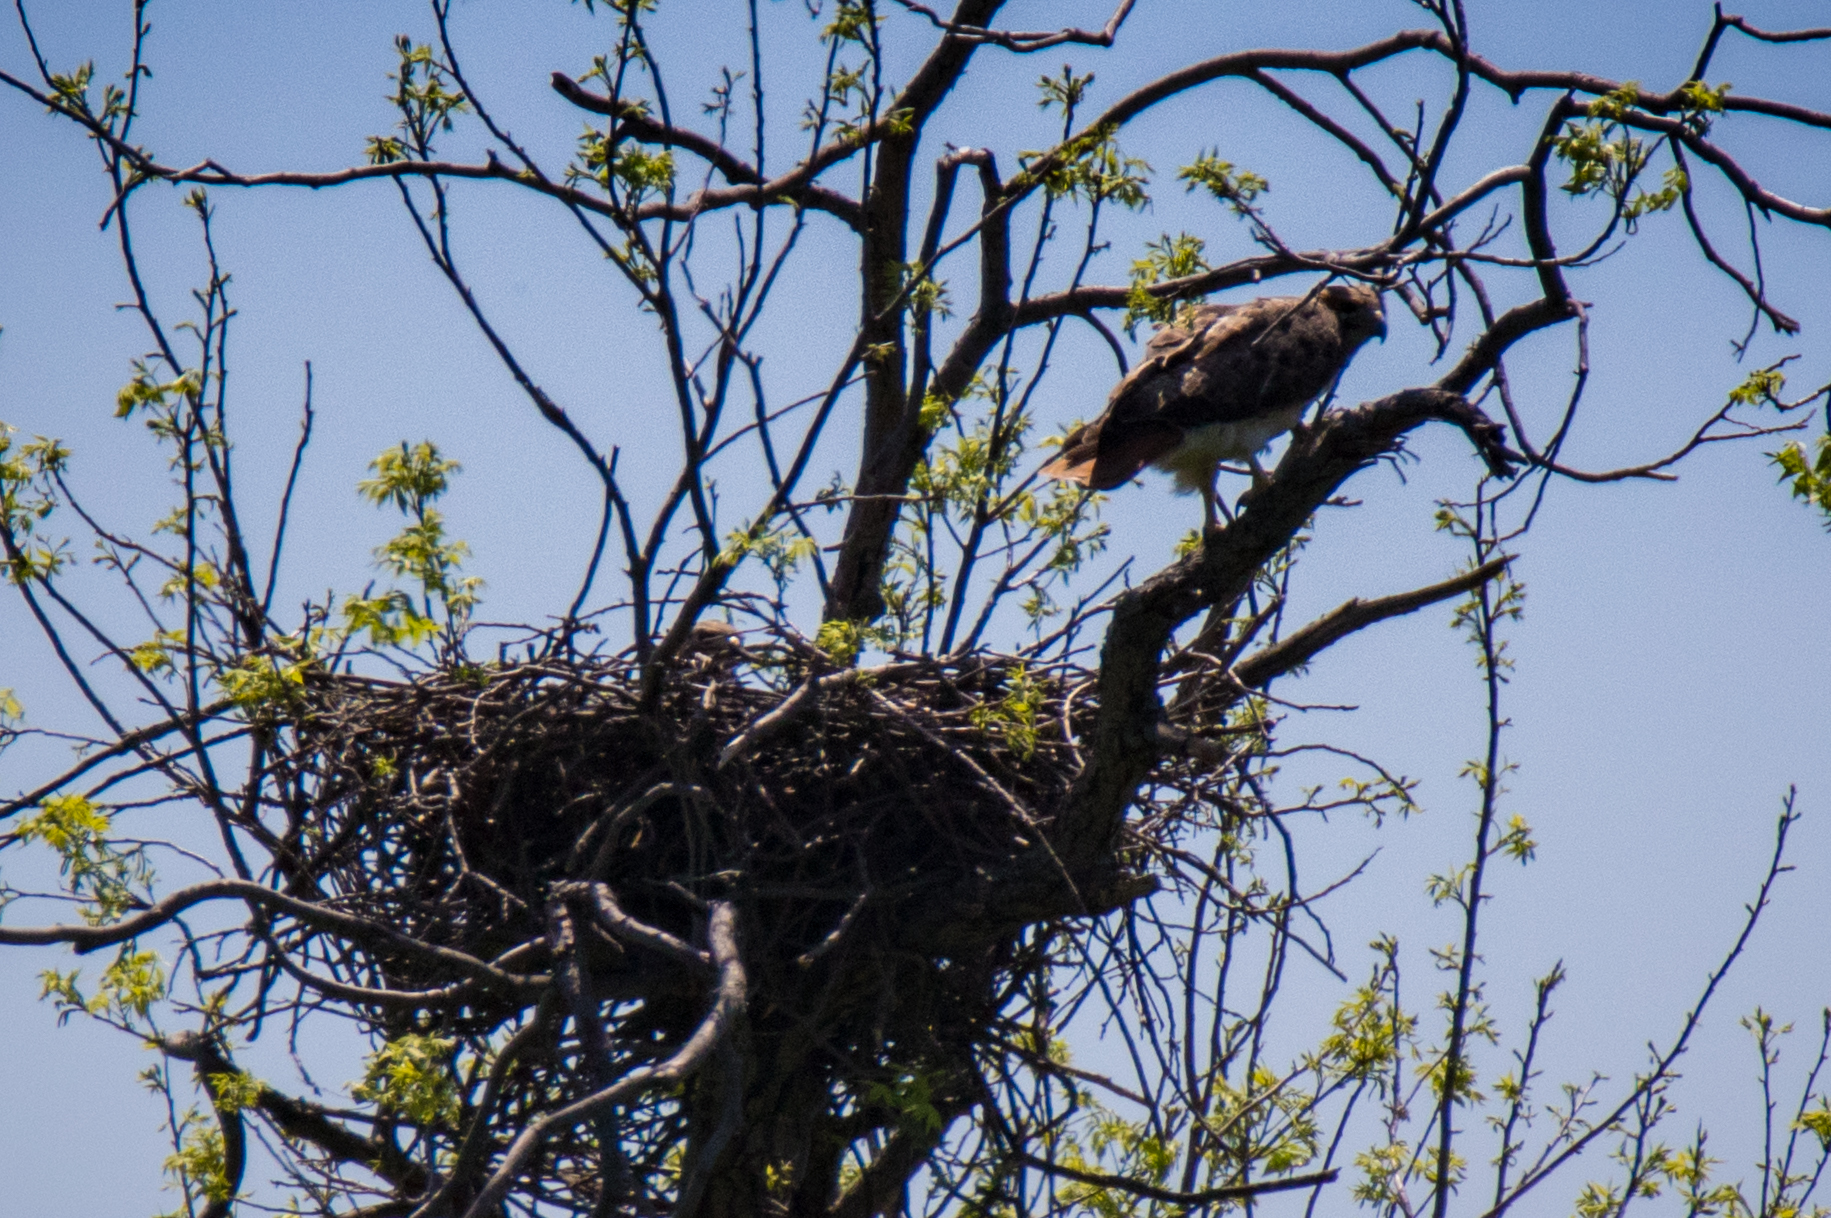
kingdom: Animalia
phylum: Chordata
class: Aves
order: Accipitriformes
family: Accipitridae
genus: Buteo
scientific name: Buteo jamaicensis
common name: Red-tailed hawk
